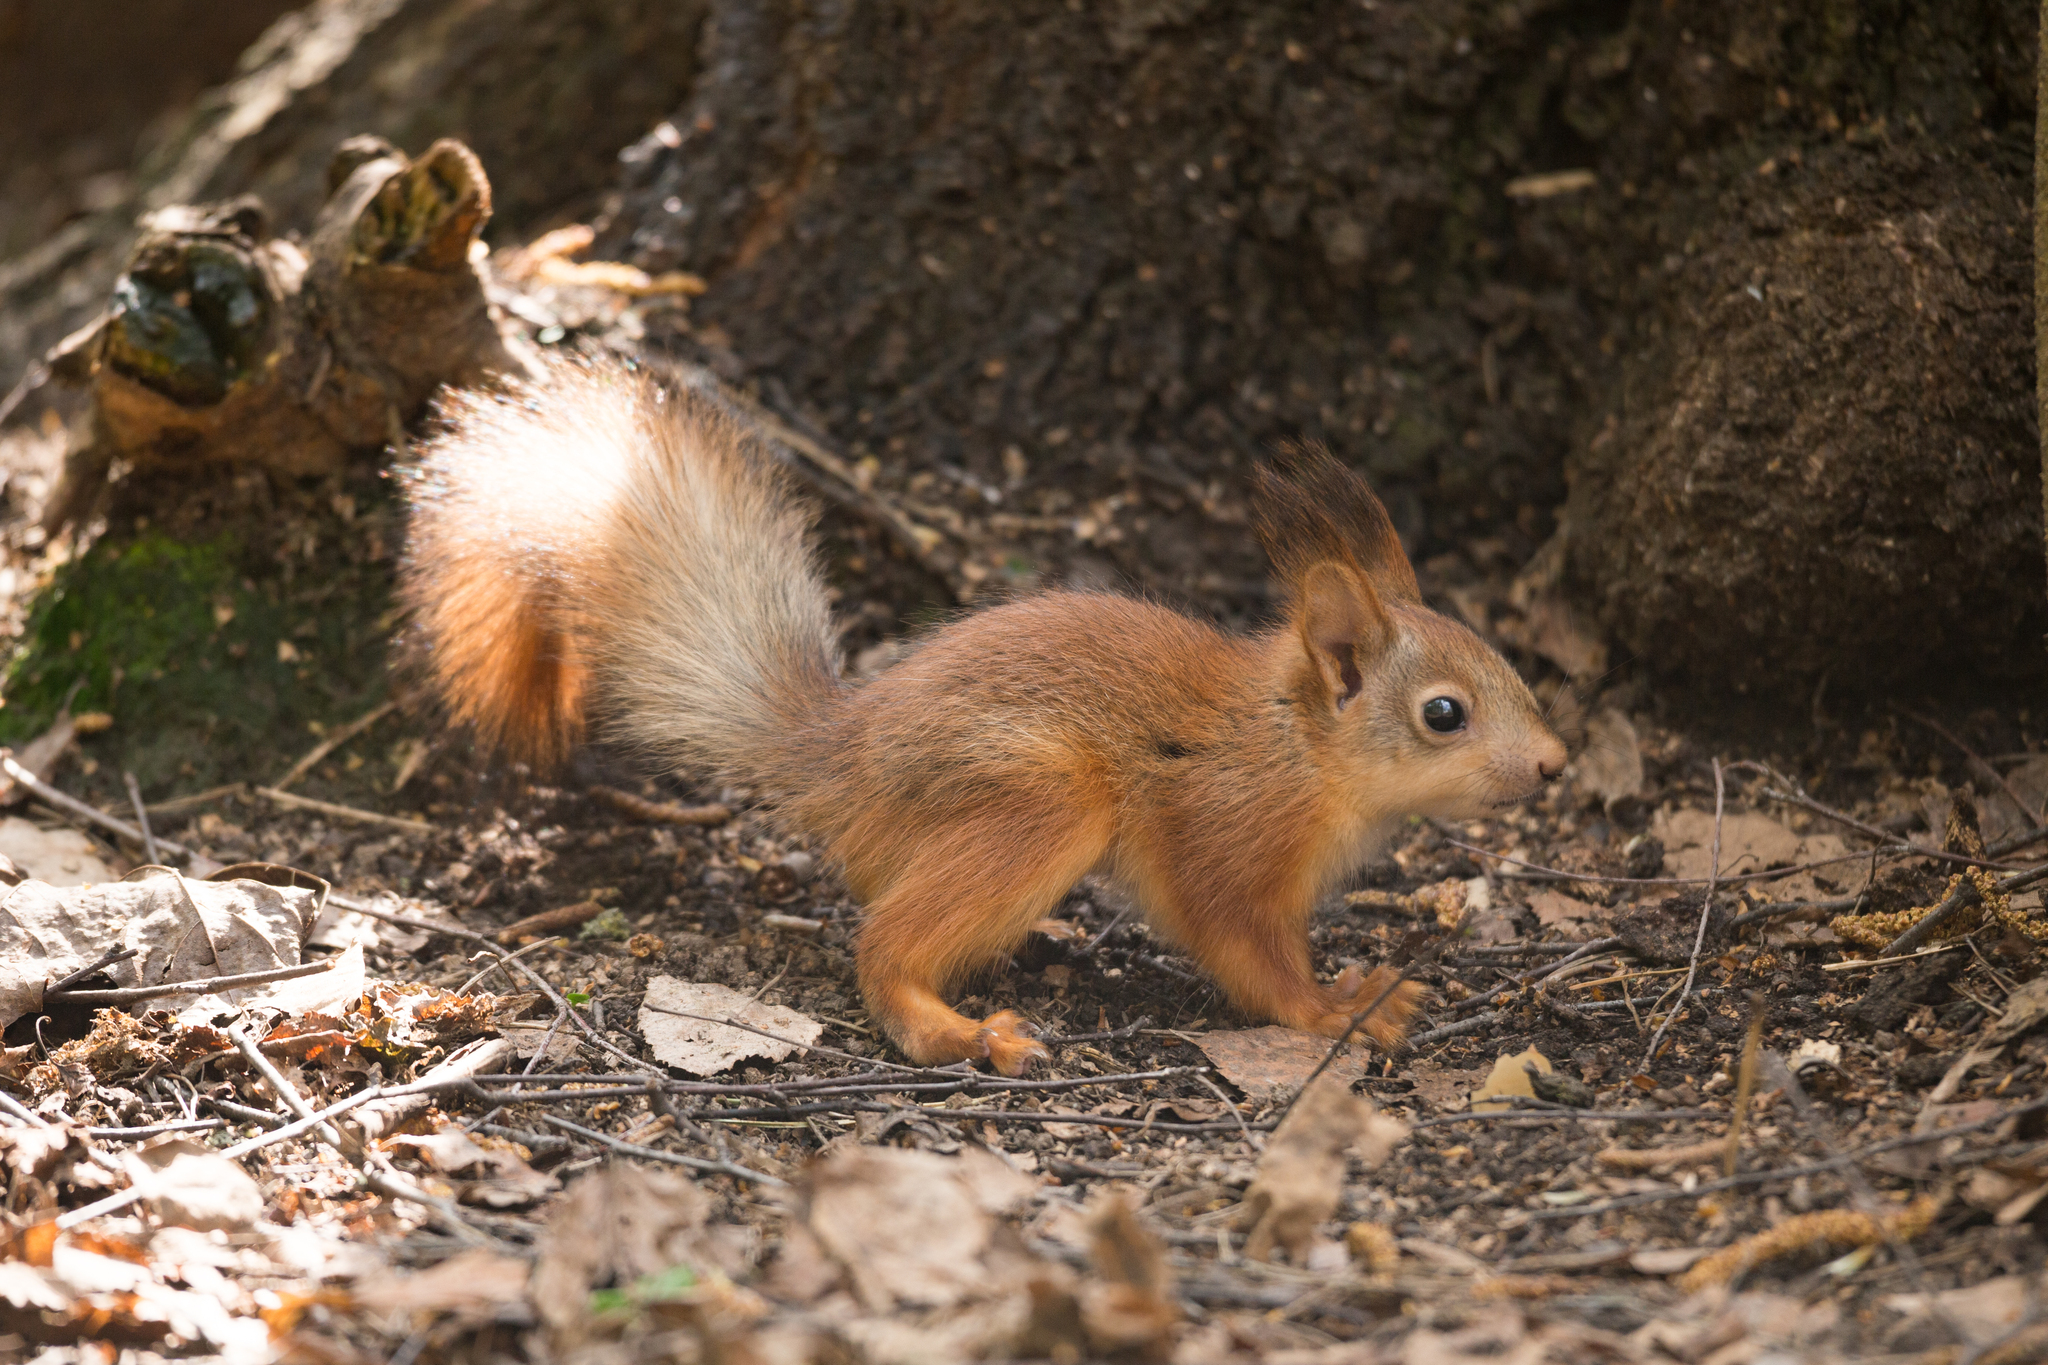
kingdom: Animalia
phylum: Chordata
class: Mammalia
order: Rodentia
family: Sciuridae
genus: Sciurus
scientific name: Sciurus vulgaris
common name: Eurasian red squirrel
